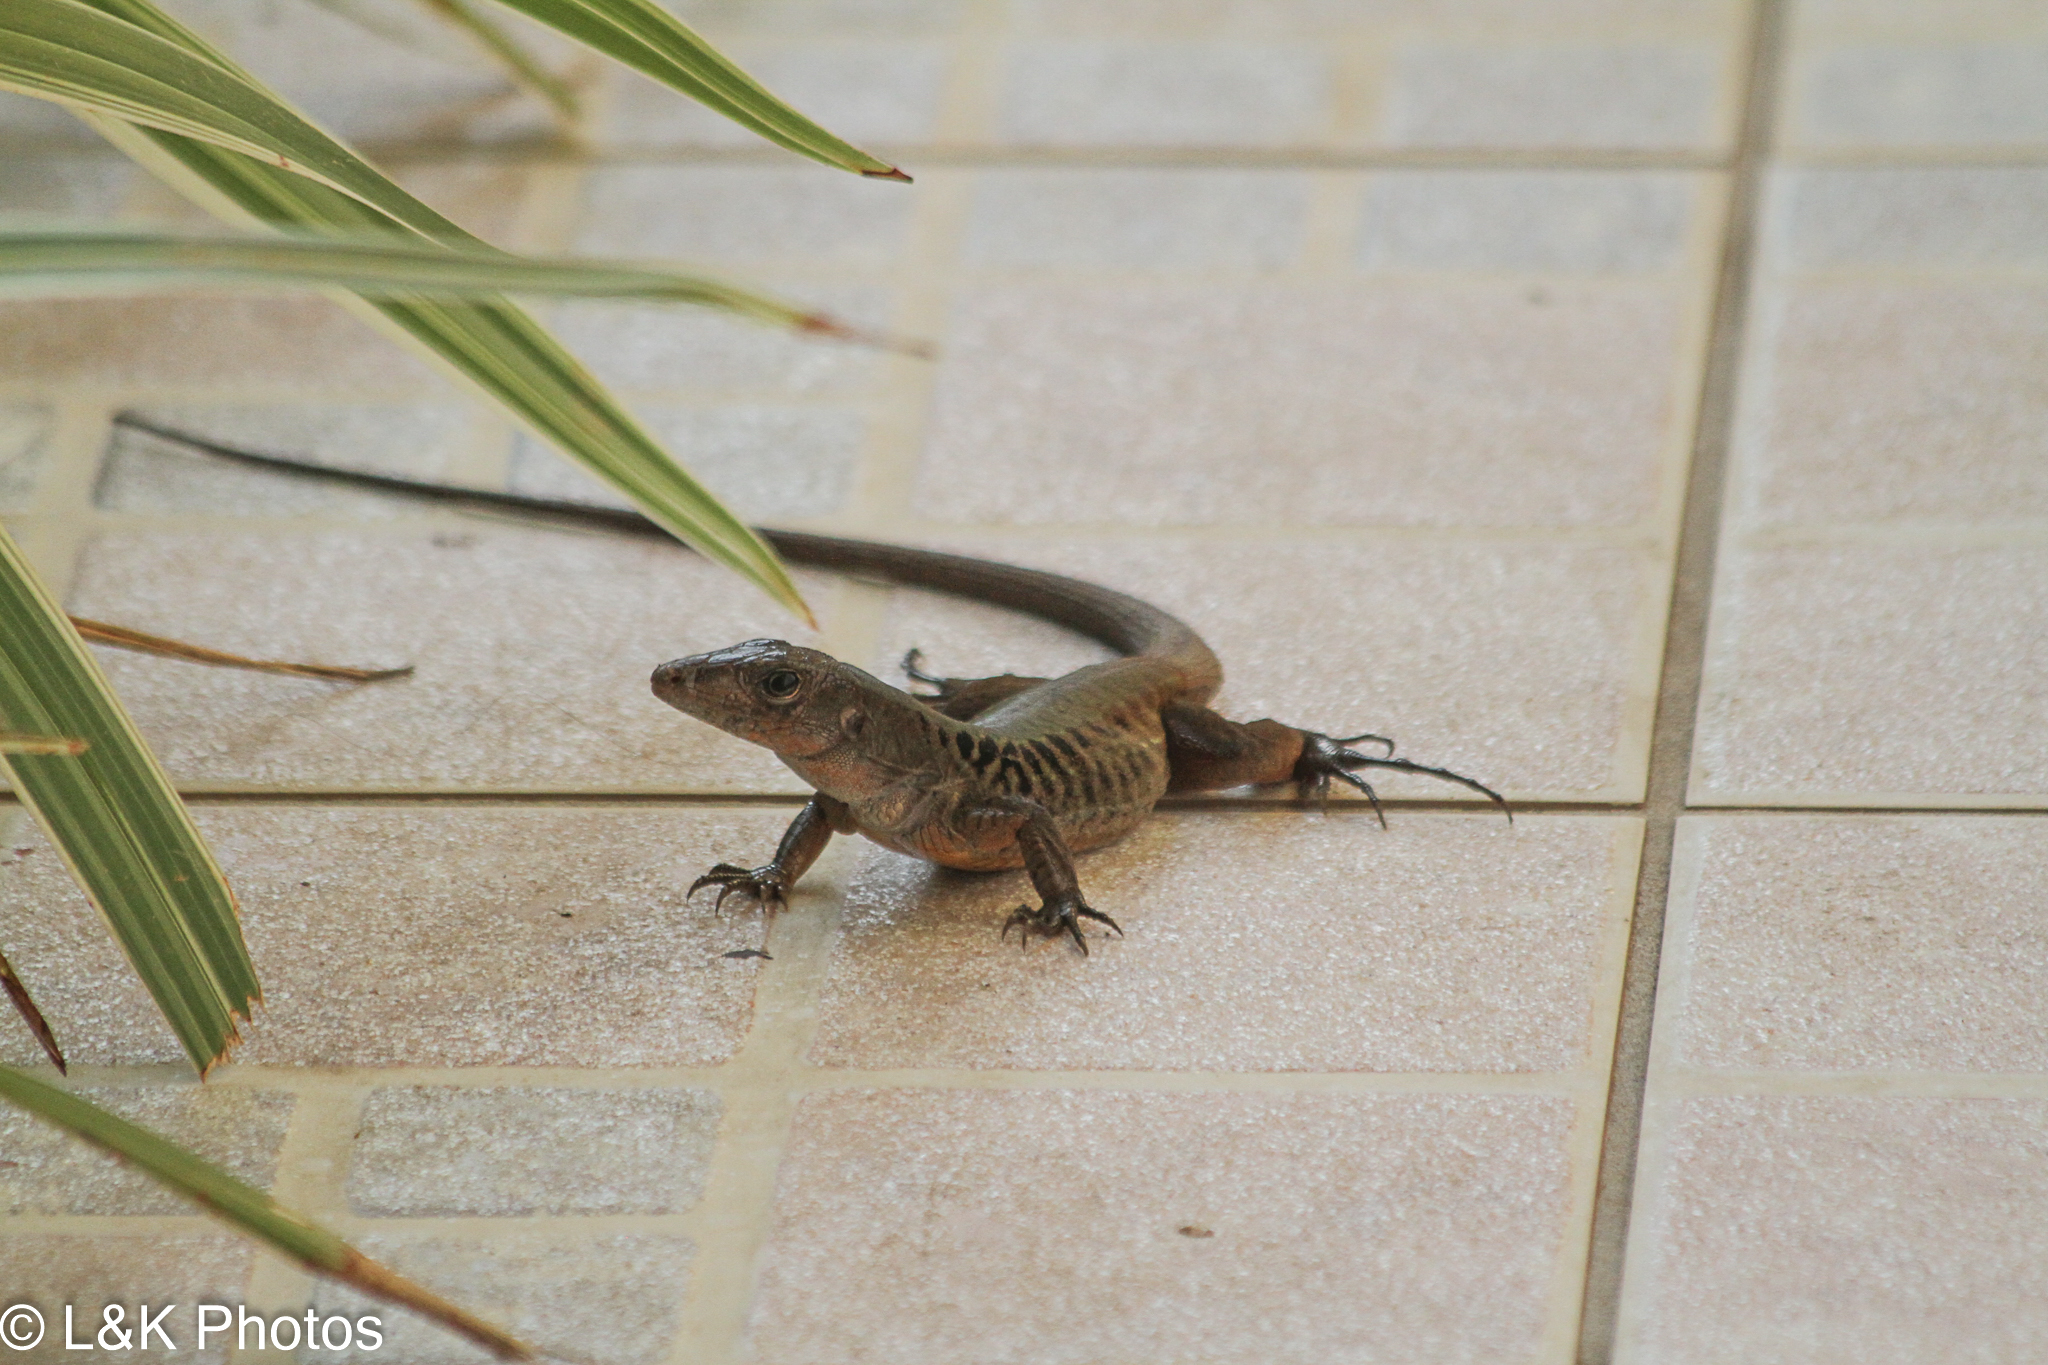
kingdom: Animalia
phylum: Chordata
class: Squamata
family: Teiidae
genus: Holcosus
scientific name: Holcosus leptophrys
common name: Delicate ameiva
